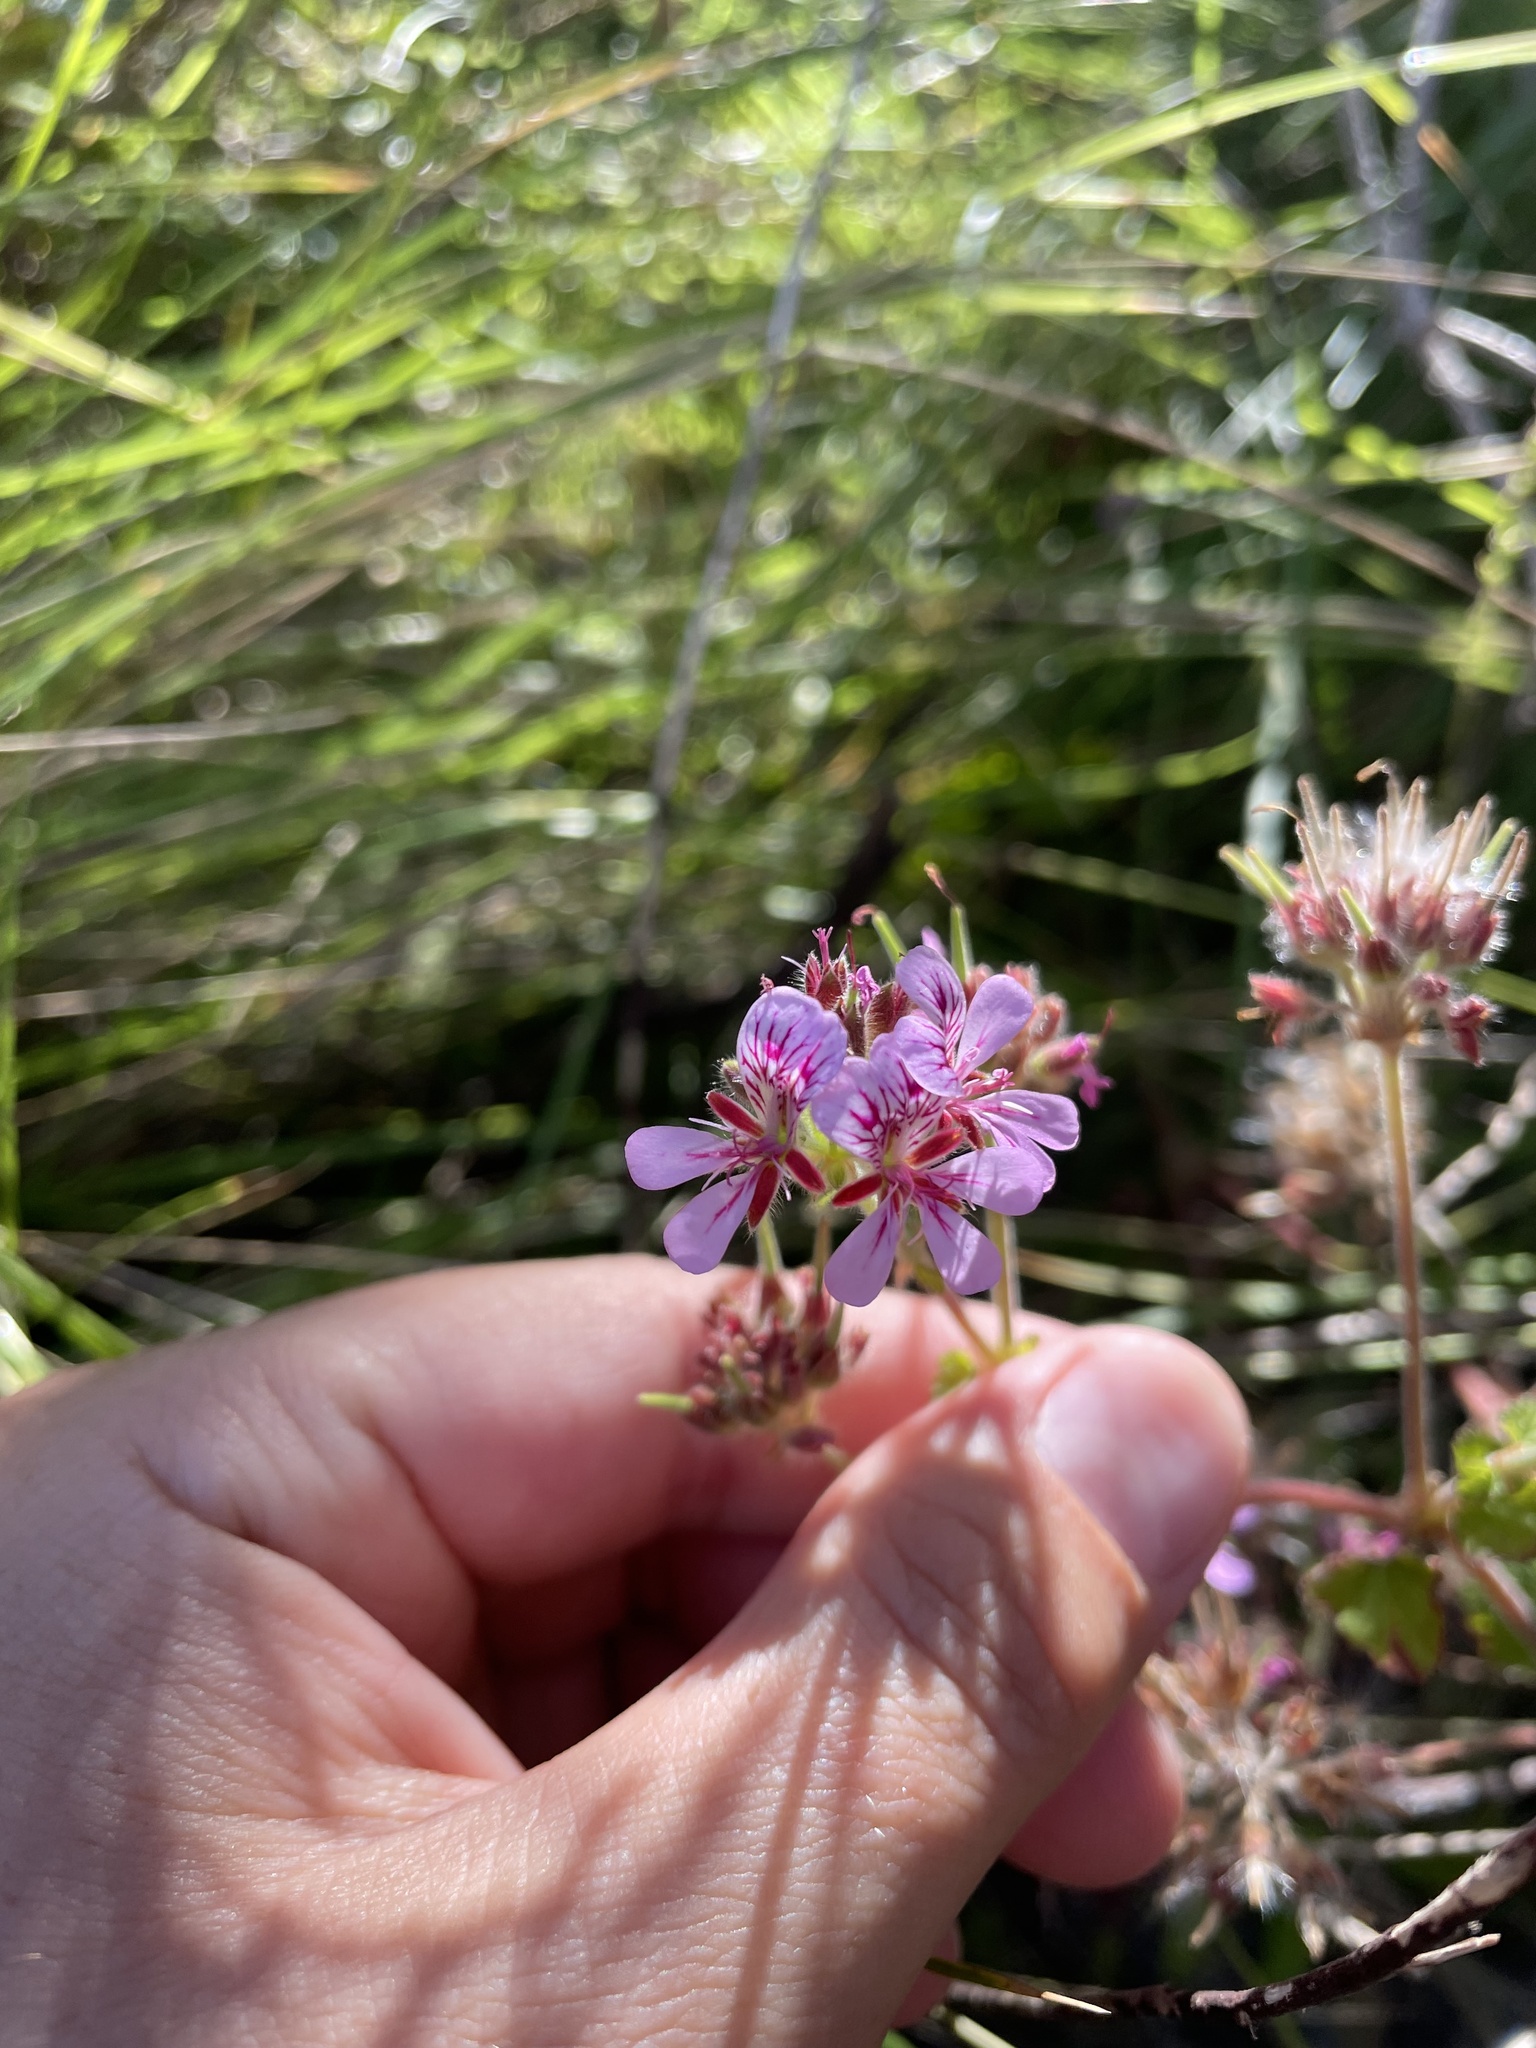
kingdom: Plantae
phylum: Tracheophyta
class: Magnoliopsida
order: Geraniales
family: Geraniaceae
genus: Pelargonium
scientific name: Pelargonium australe
